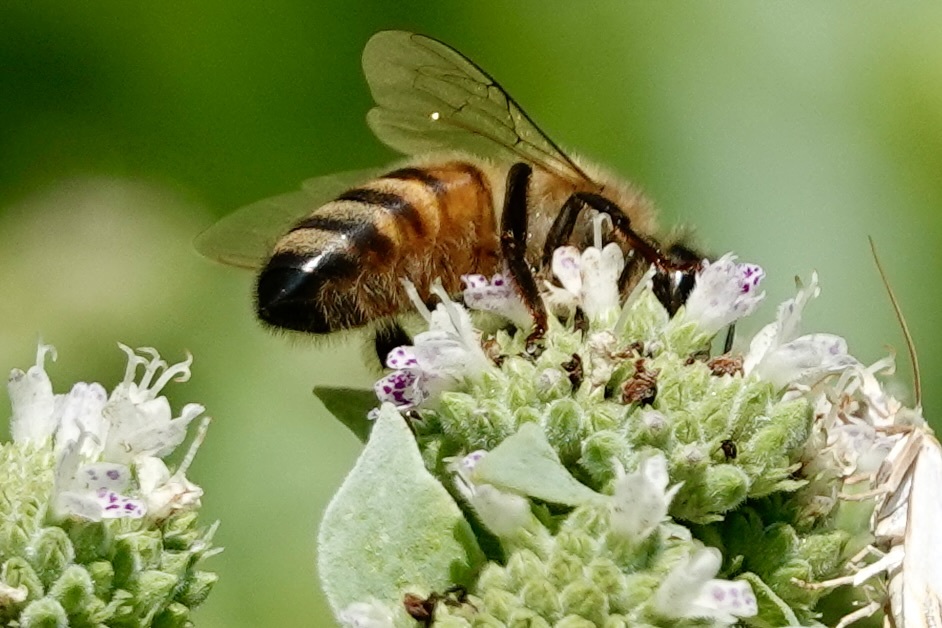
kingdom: Animalia
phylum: Arthropoda
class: Insecta
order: Hymenoptera
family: Apidae
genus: Apis
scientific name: Apis mellifera
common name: Honey bee
